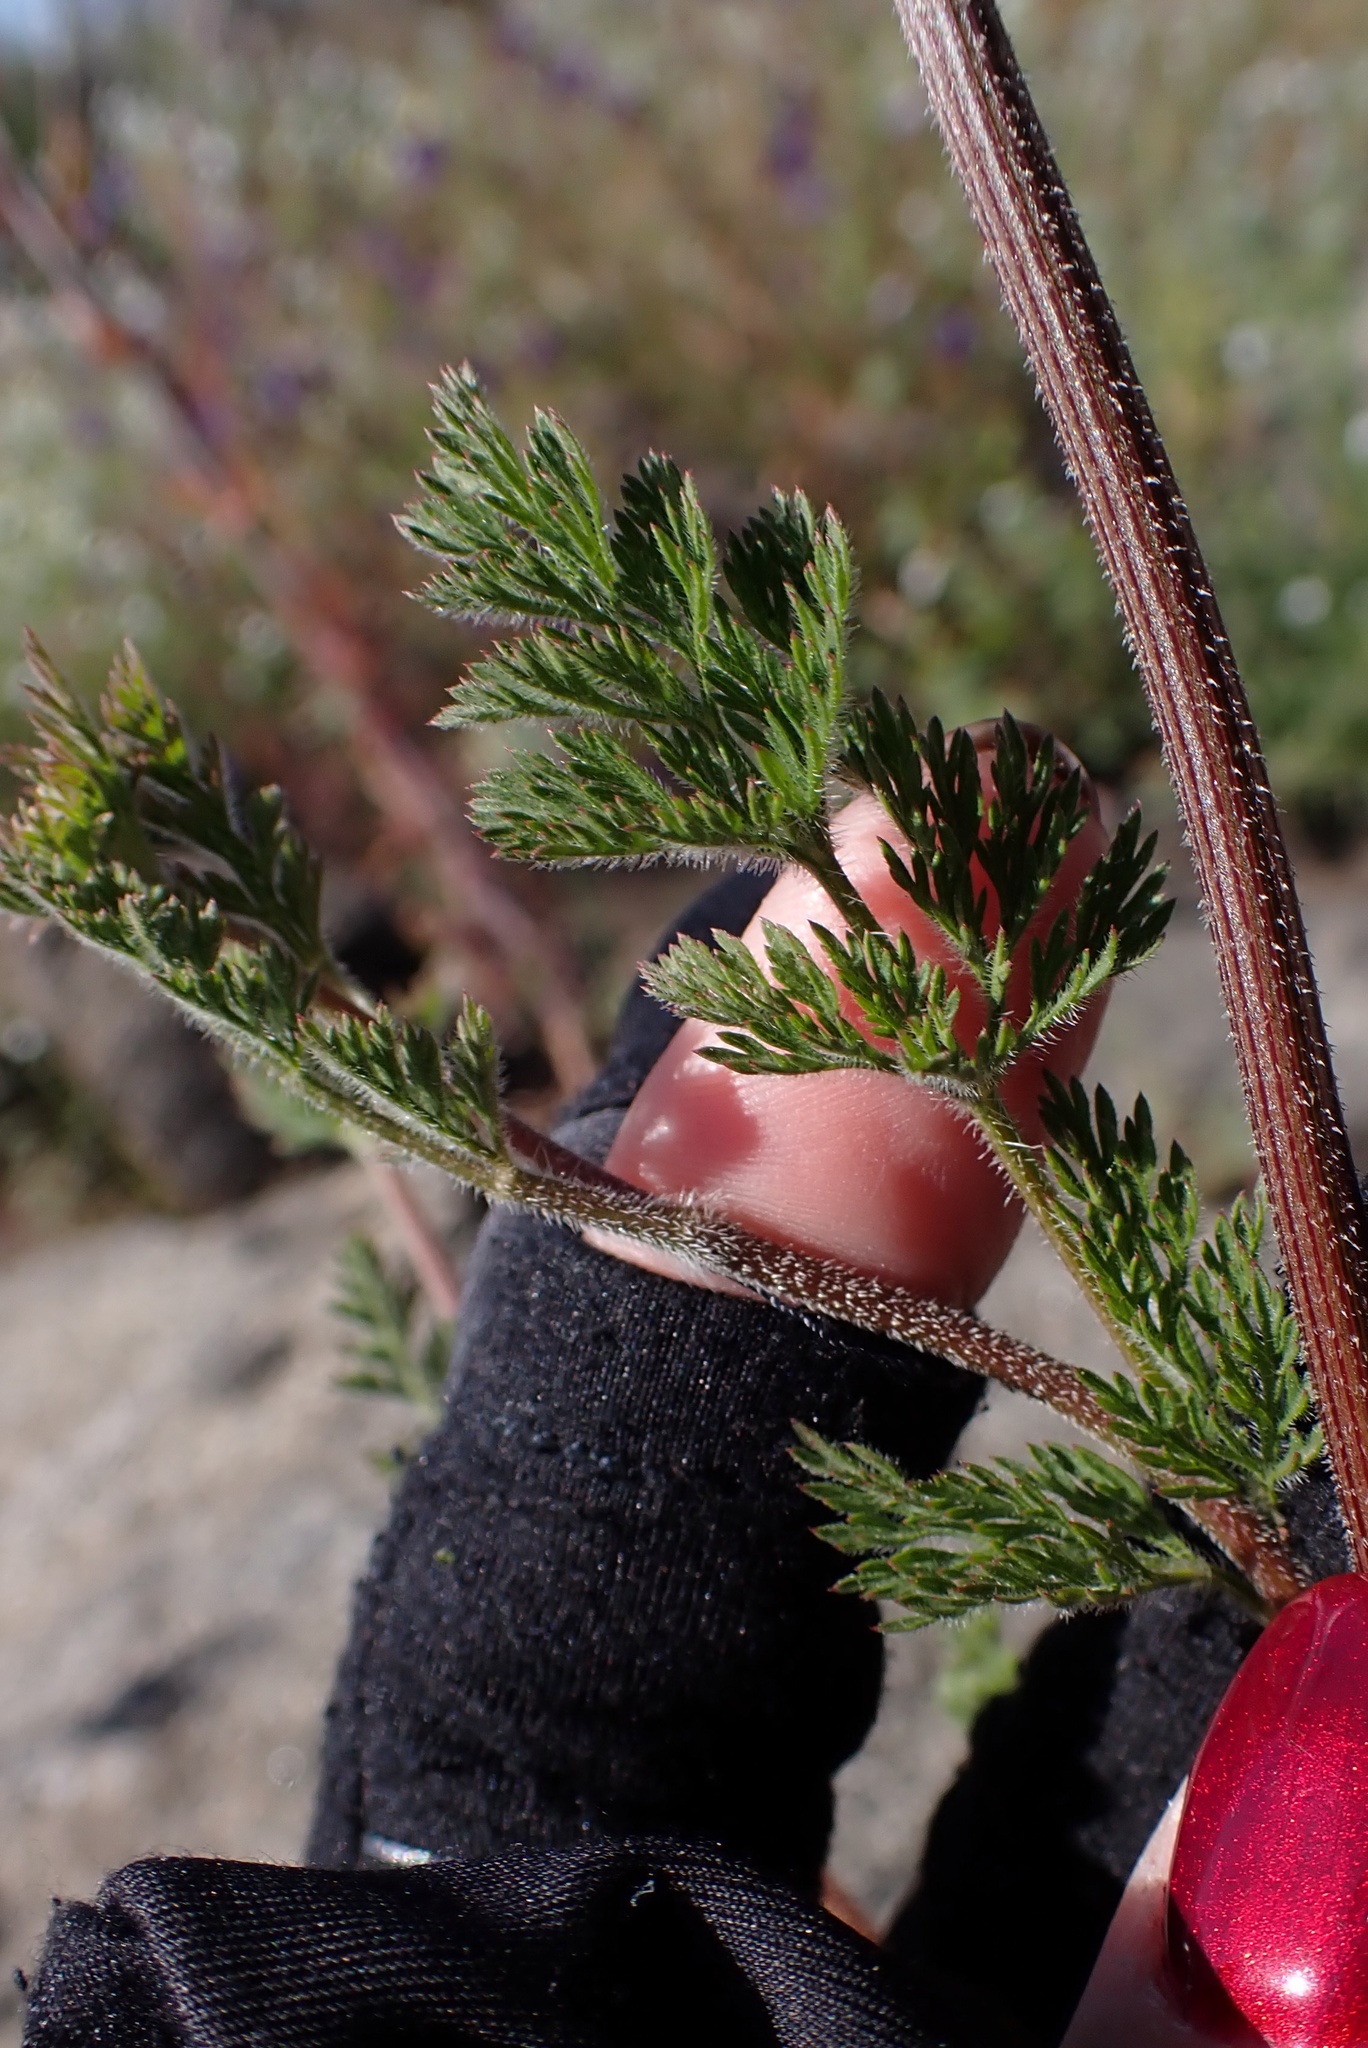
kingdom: Plantae
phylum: Tracheophyta
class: Magnoliopsida
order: Apiales
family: Apiaceae
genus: Daucus
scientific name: Daucus pusillus
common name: Southwest wild carrot
